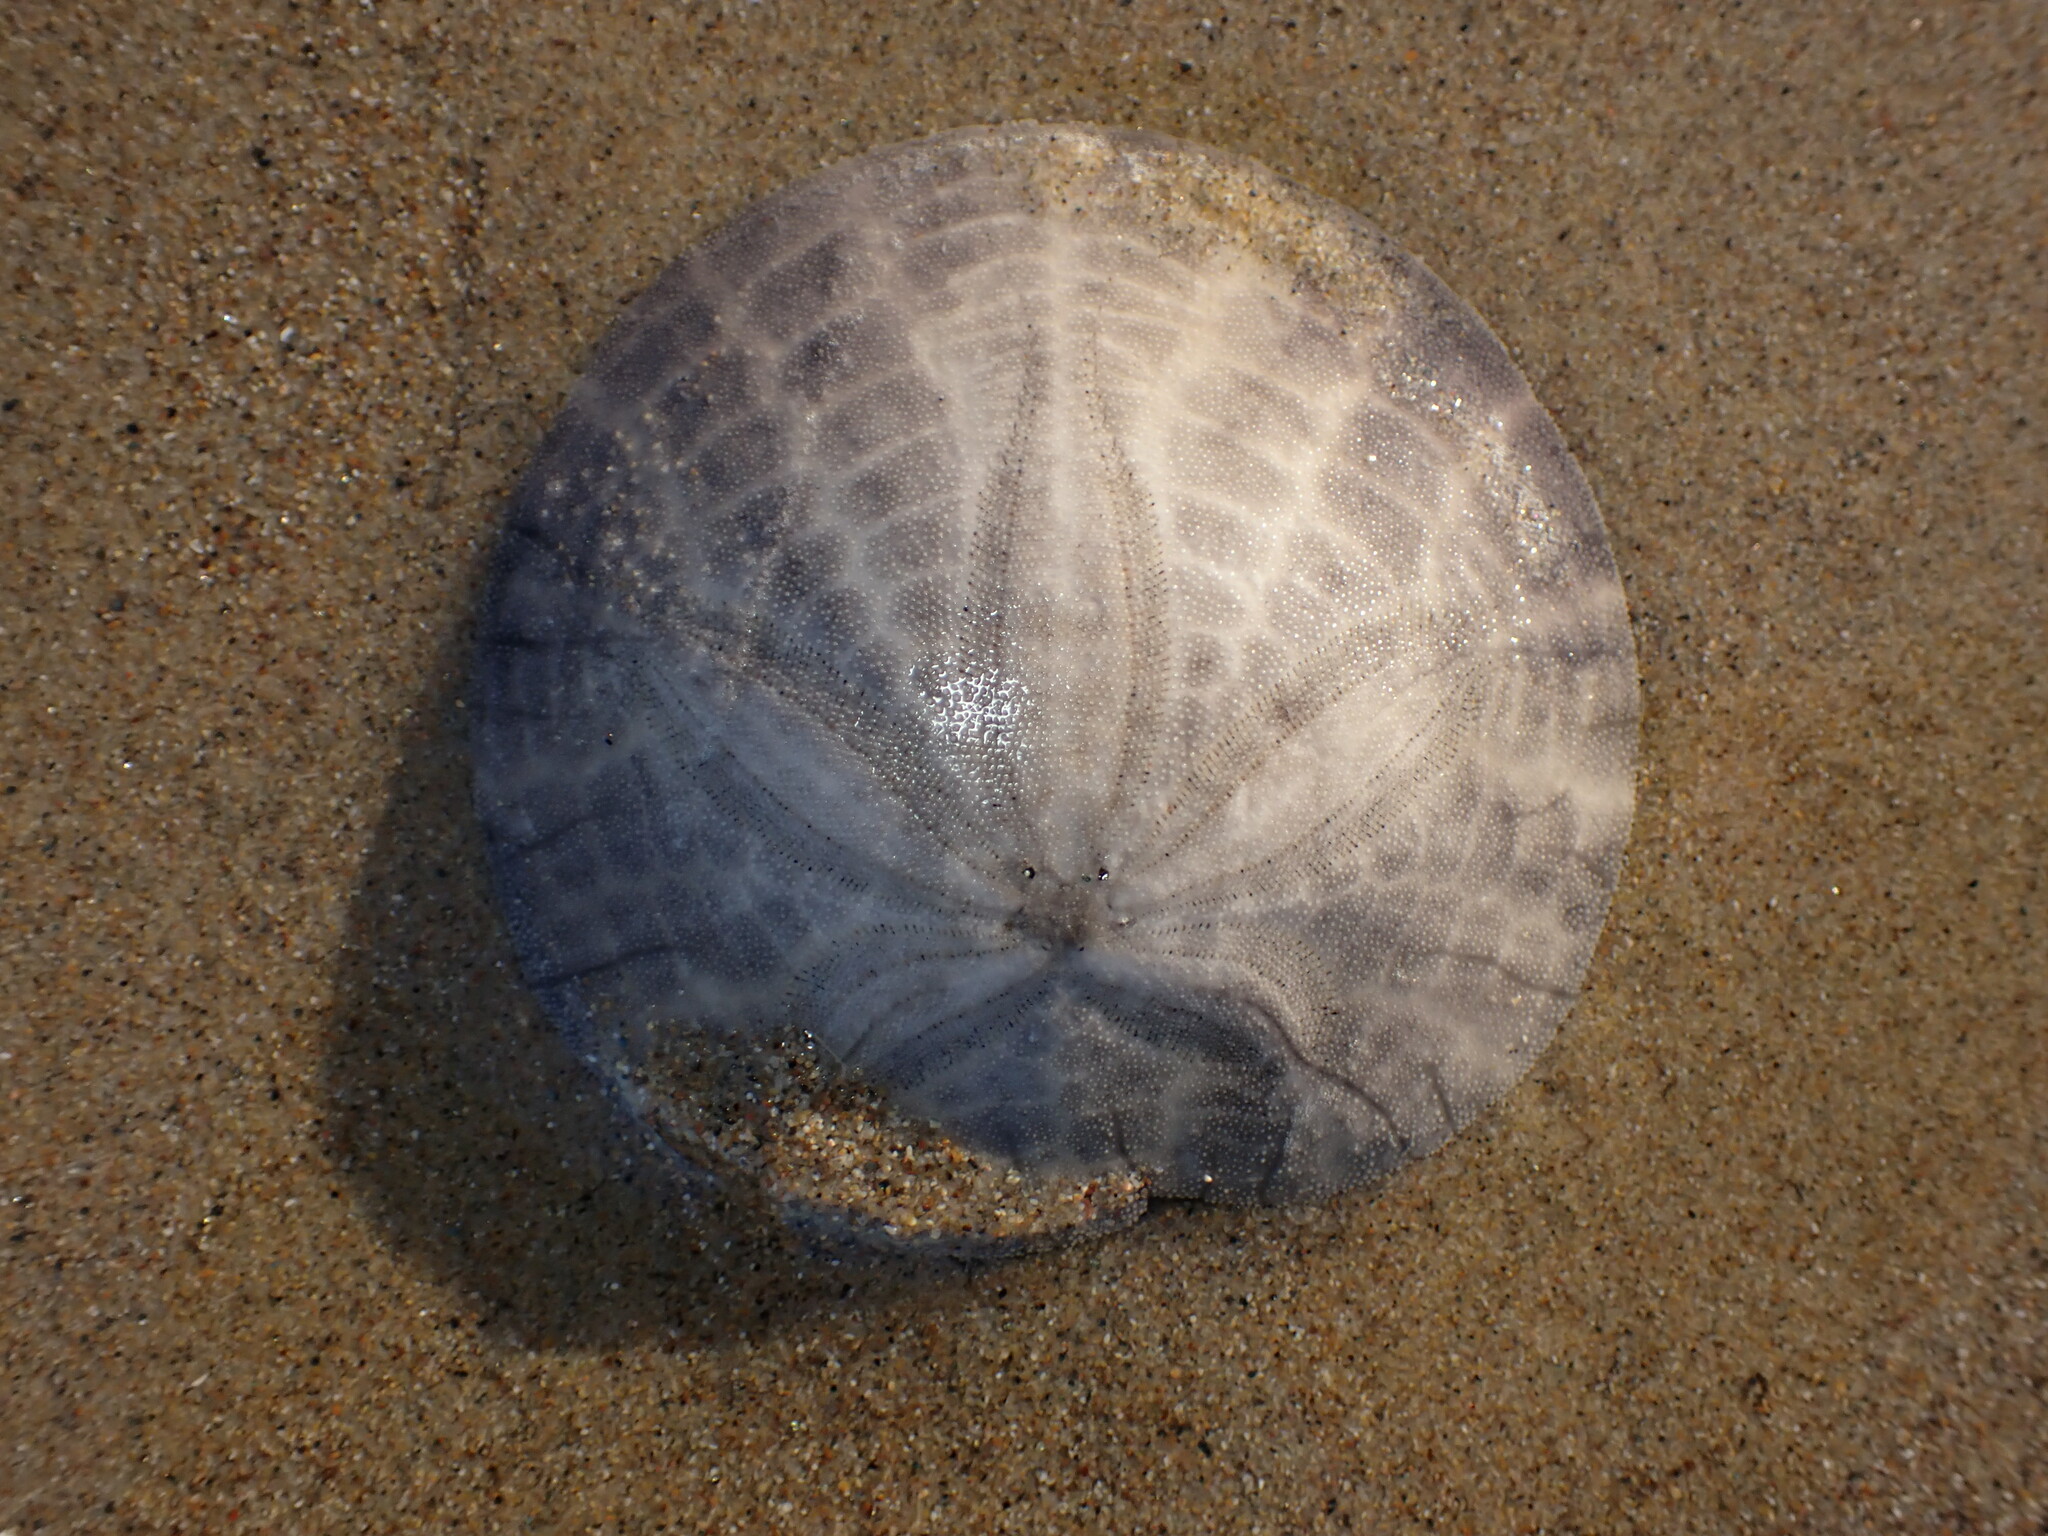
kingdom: Animalia
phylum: Echinodermata
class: Echinoidea
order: Echinolampadacea
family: Dendrasteridae
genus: Dendraster
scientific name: Dendraster excentricus
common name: Eccentric sand dollar sea urchin
